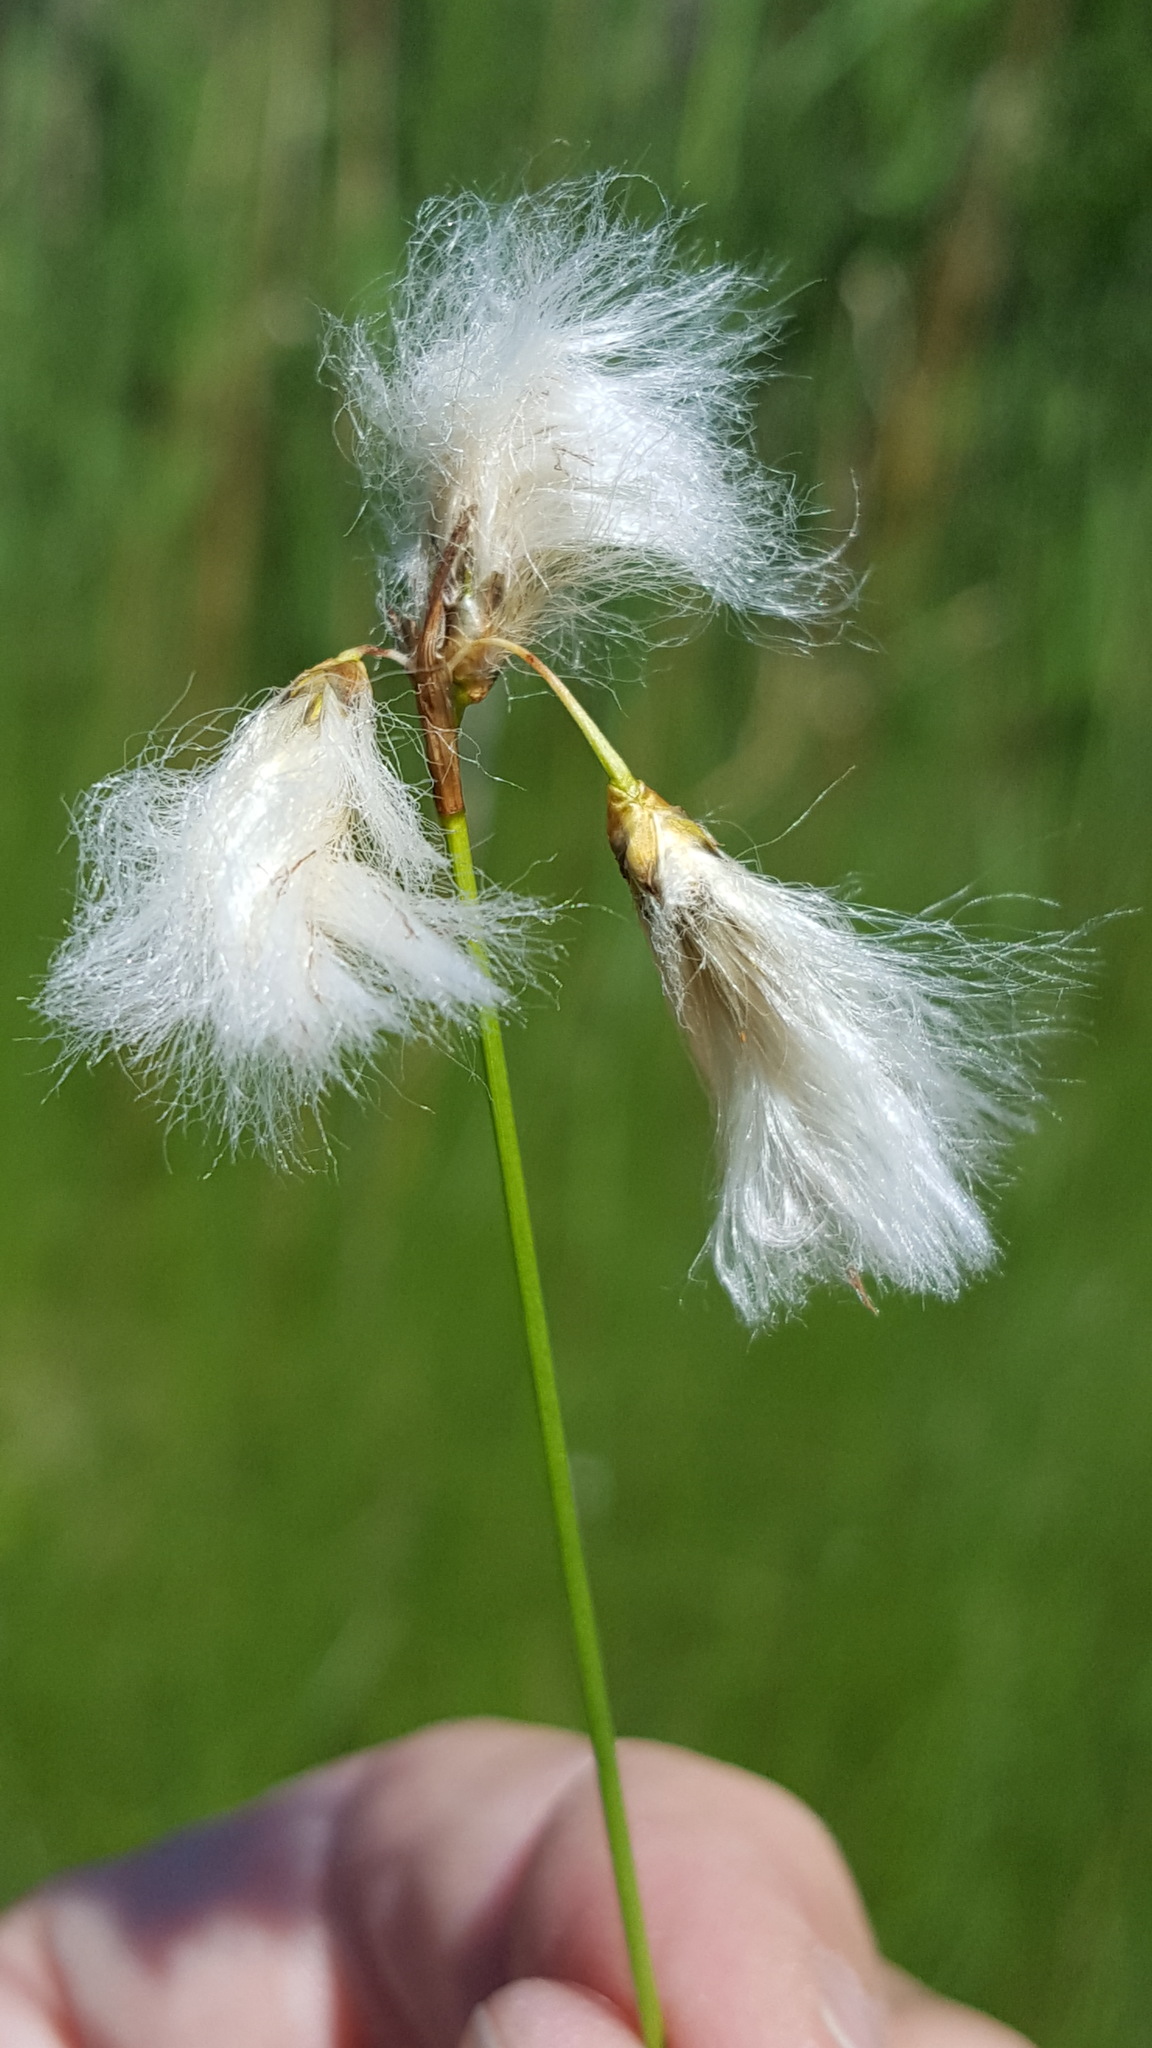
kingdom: Plantae
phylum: Tracheophyta
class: Liliopsida
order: Poales
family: Cyperaceae
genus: Eriophorum
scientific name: Eriophorum gracile
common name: Slender cottongrass
